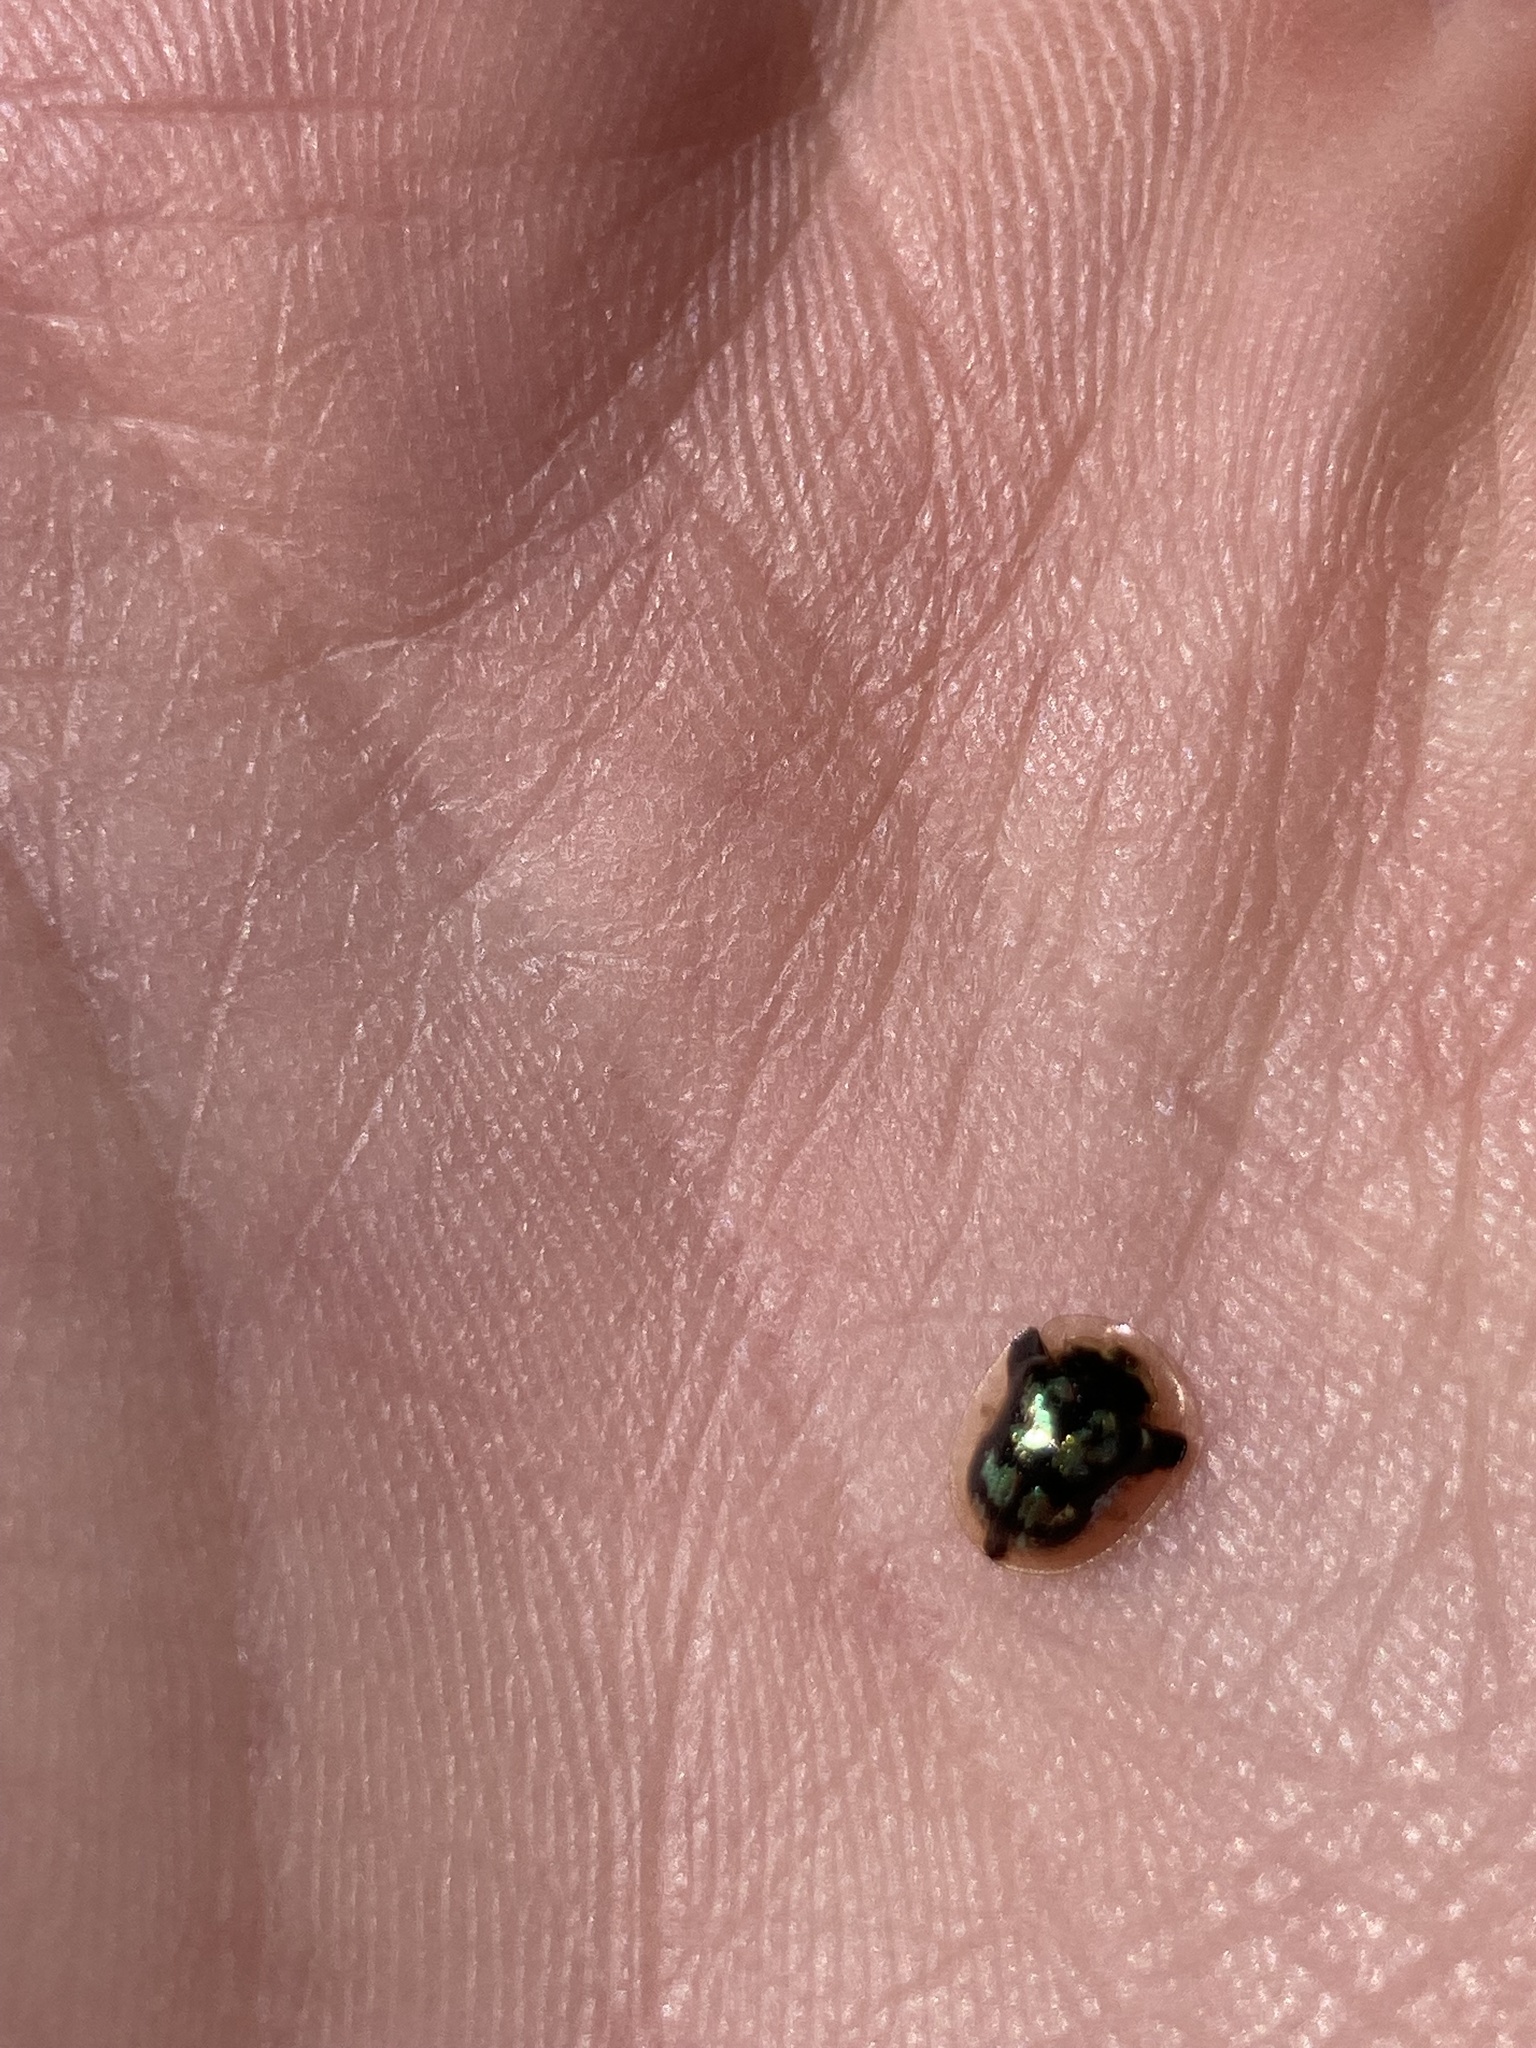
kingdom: Animalia
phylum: Arthropoda
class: Insecta
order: Coleoptera
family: Chrysomelidae
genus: Deloyala
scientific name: Deloyala guttata
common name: Mottled tortoise beetle
